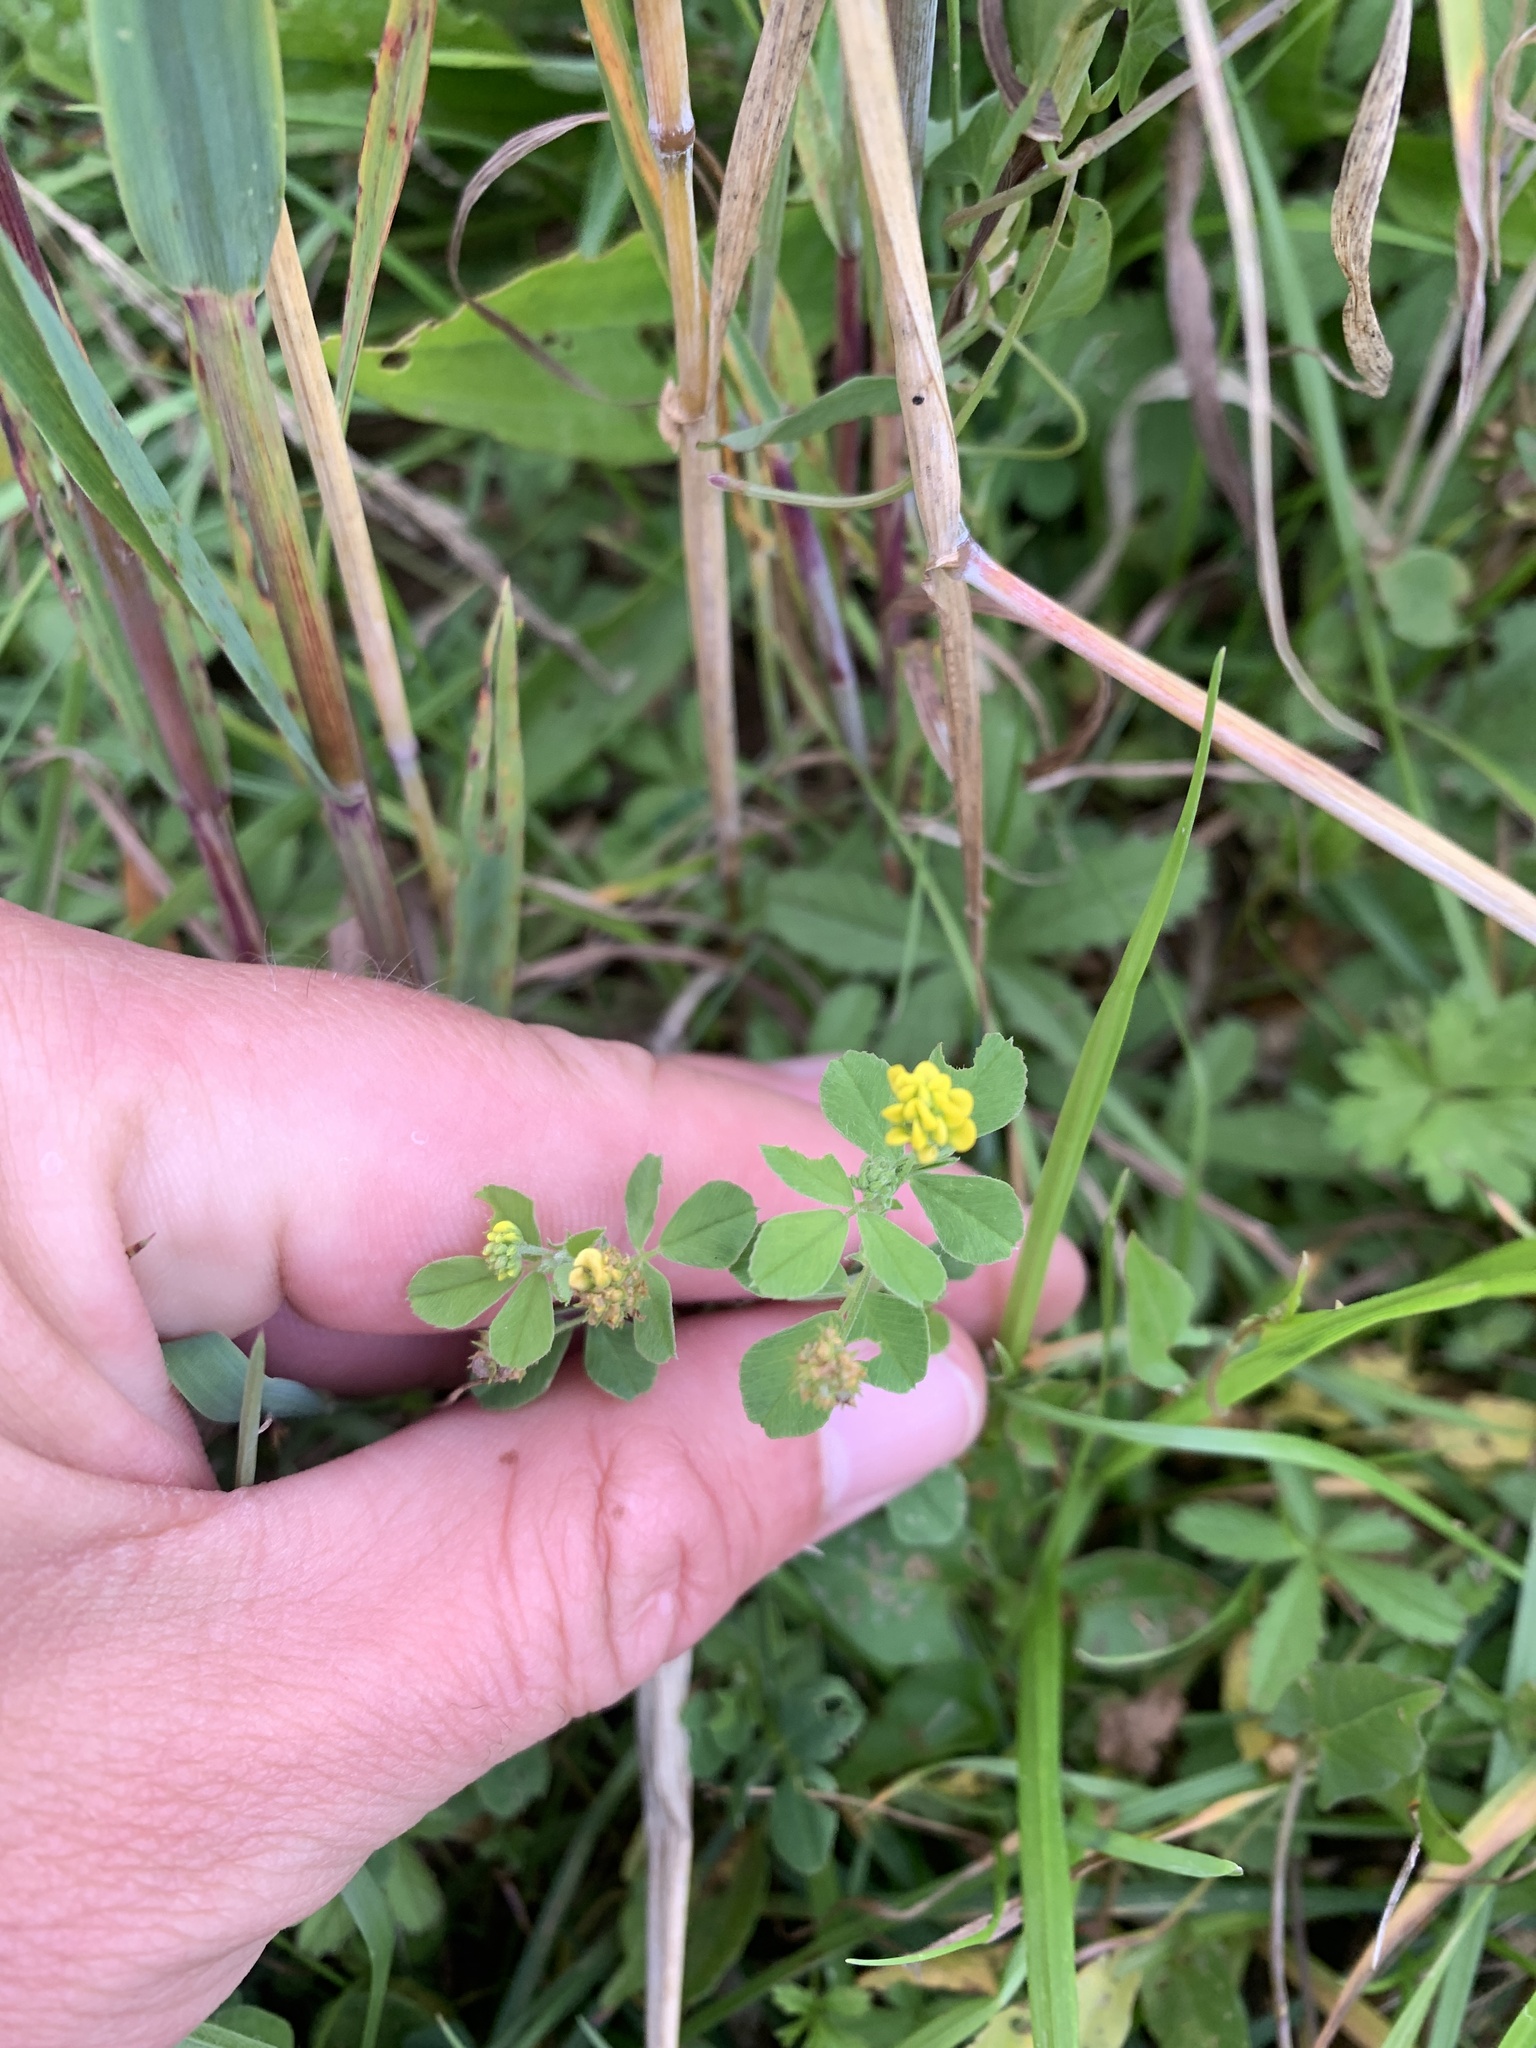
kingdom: Plantae
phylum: Tracheophyta
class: Magnoliopsida
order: Fabales
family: Fabaceae
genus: Medicago
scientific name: Medicago lupulina
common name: Black medick
